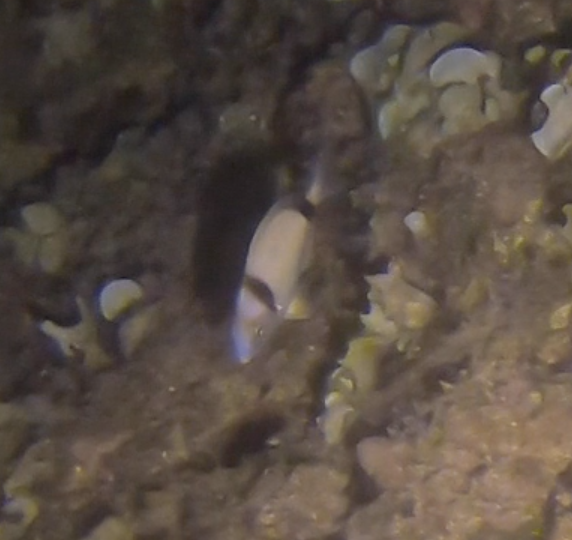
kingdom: Animalia
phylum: Chordata
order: Perciformes
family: Sparidae
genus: Diplodus
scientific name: Diplodus vulgaris
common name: Common two-banded seabream
